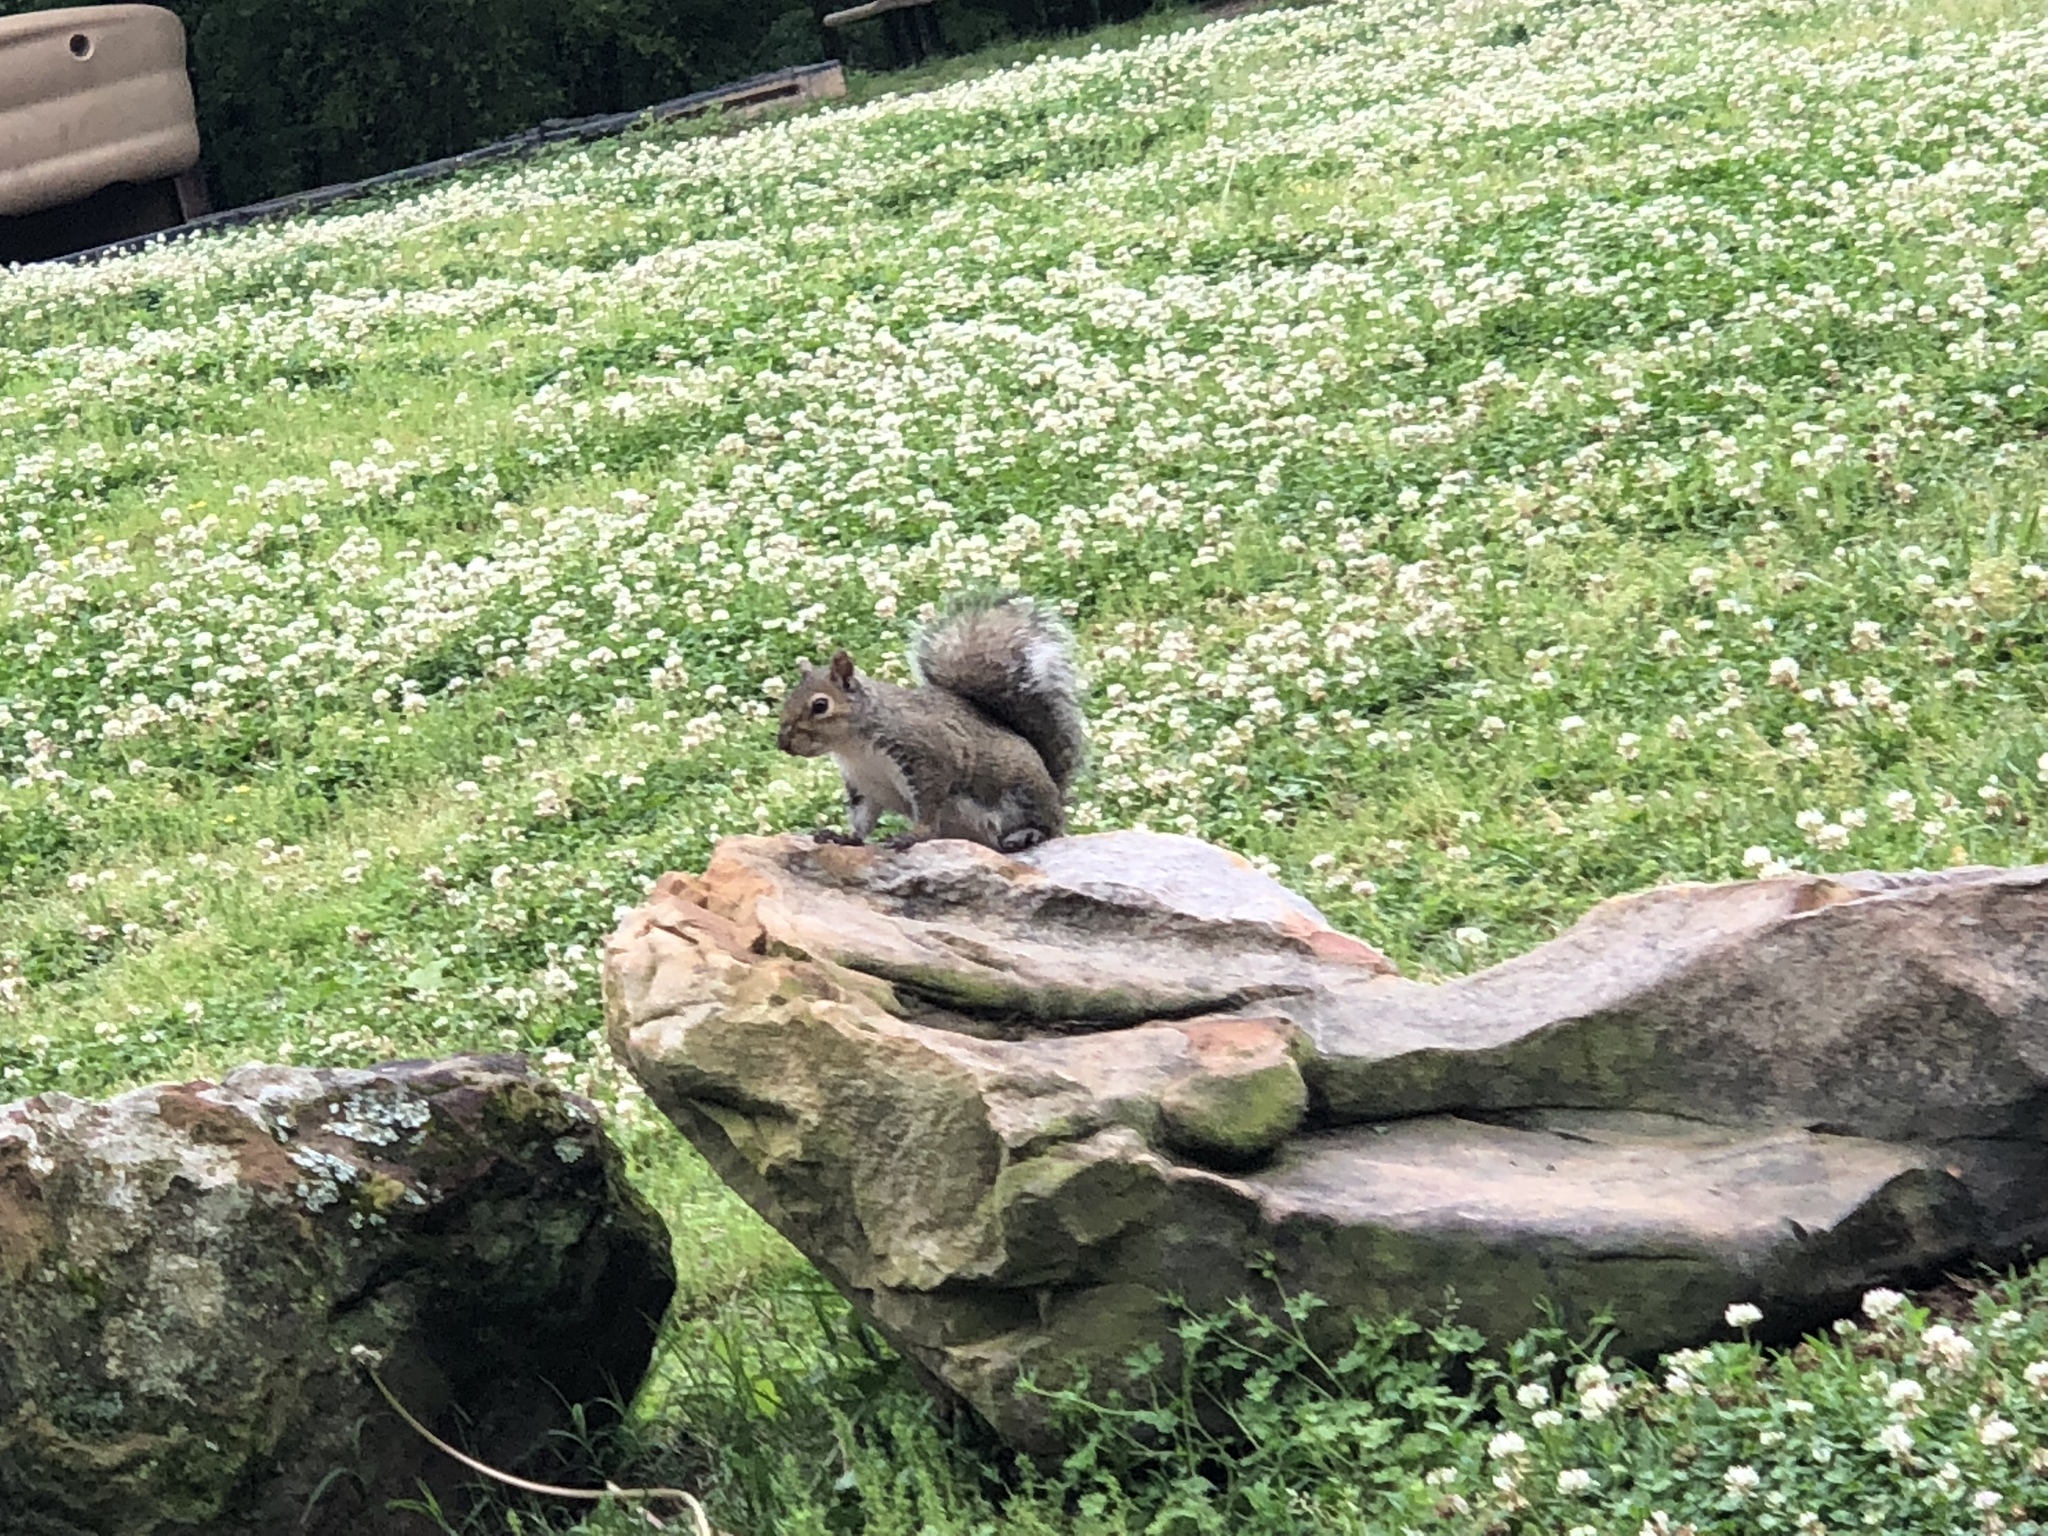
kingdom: Animalia
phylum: Chordata
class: Mammalia
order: Rodentia
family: Sciuridae
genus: Sciurus
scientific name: Sciurus carolinensis
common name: Eastern gray squirrel
